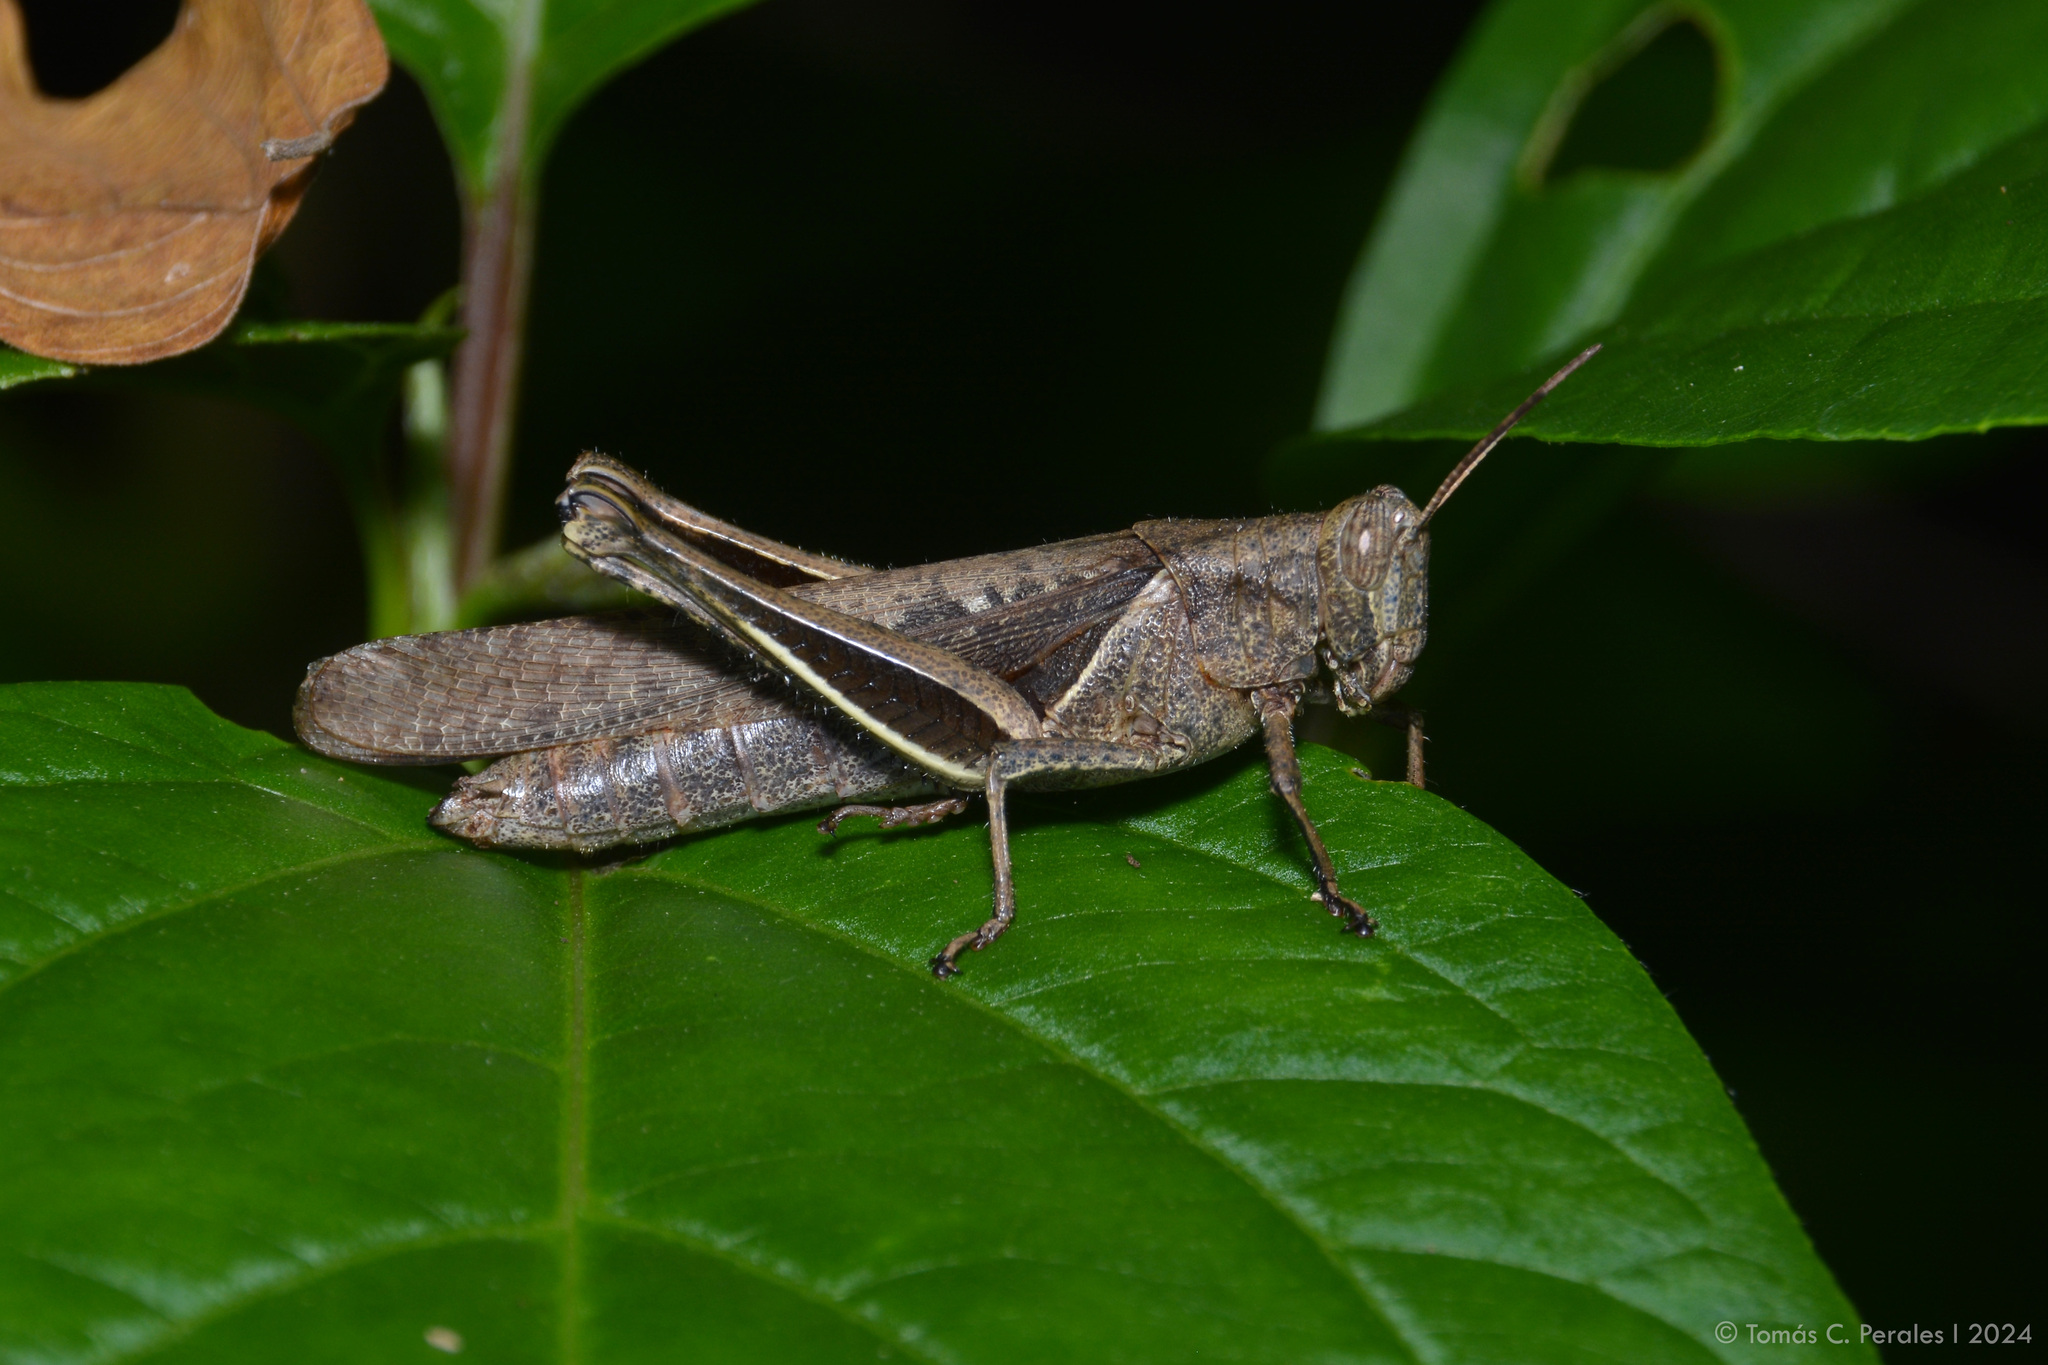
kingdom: Animalia
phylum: Arthropoda
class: Insecta
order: Orthoptera
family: Acrididae
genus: Abracris
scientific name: Abracris flavolineata
